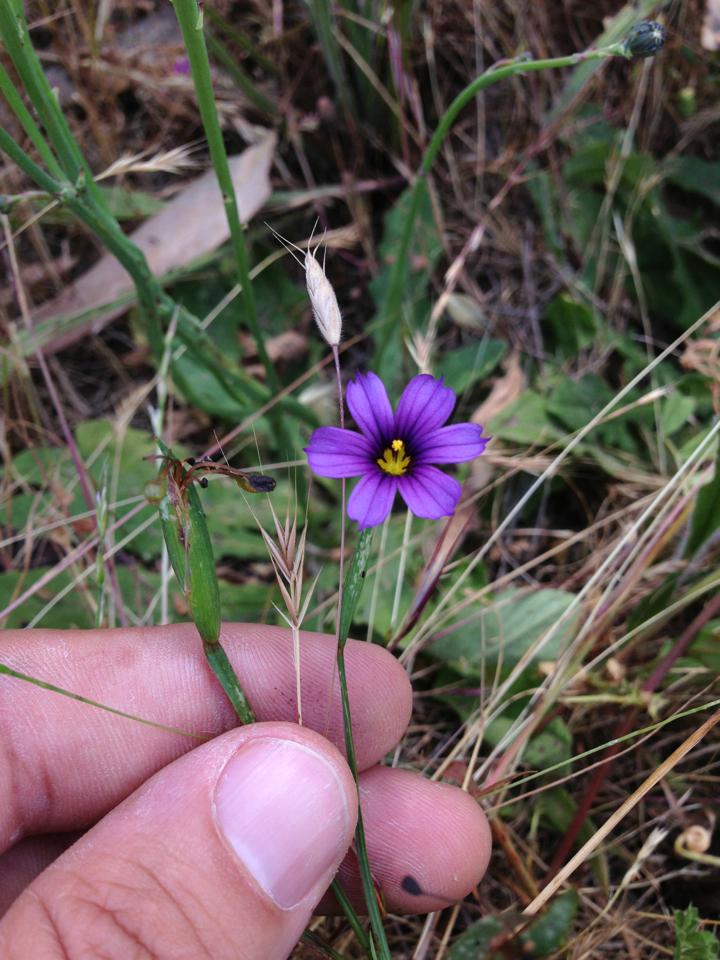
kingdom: Plantae
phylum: Tracheophyta
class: Liliopsida
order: Asparagales
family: Iridaceae
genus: Sisyrinchium
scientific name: Sisyrinchium bellum
